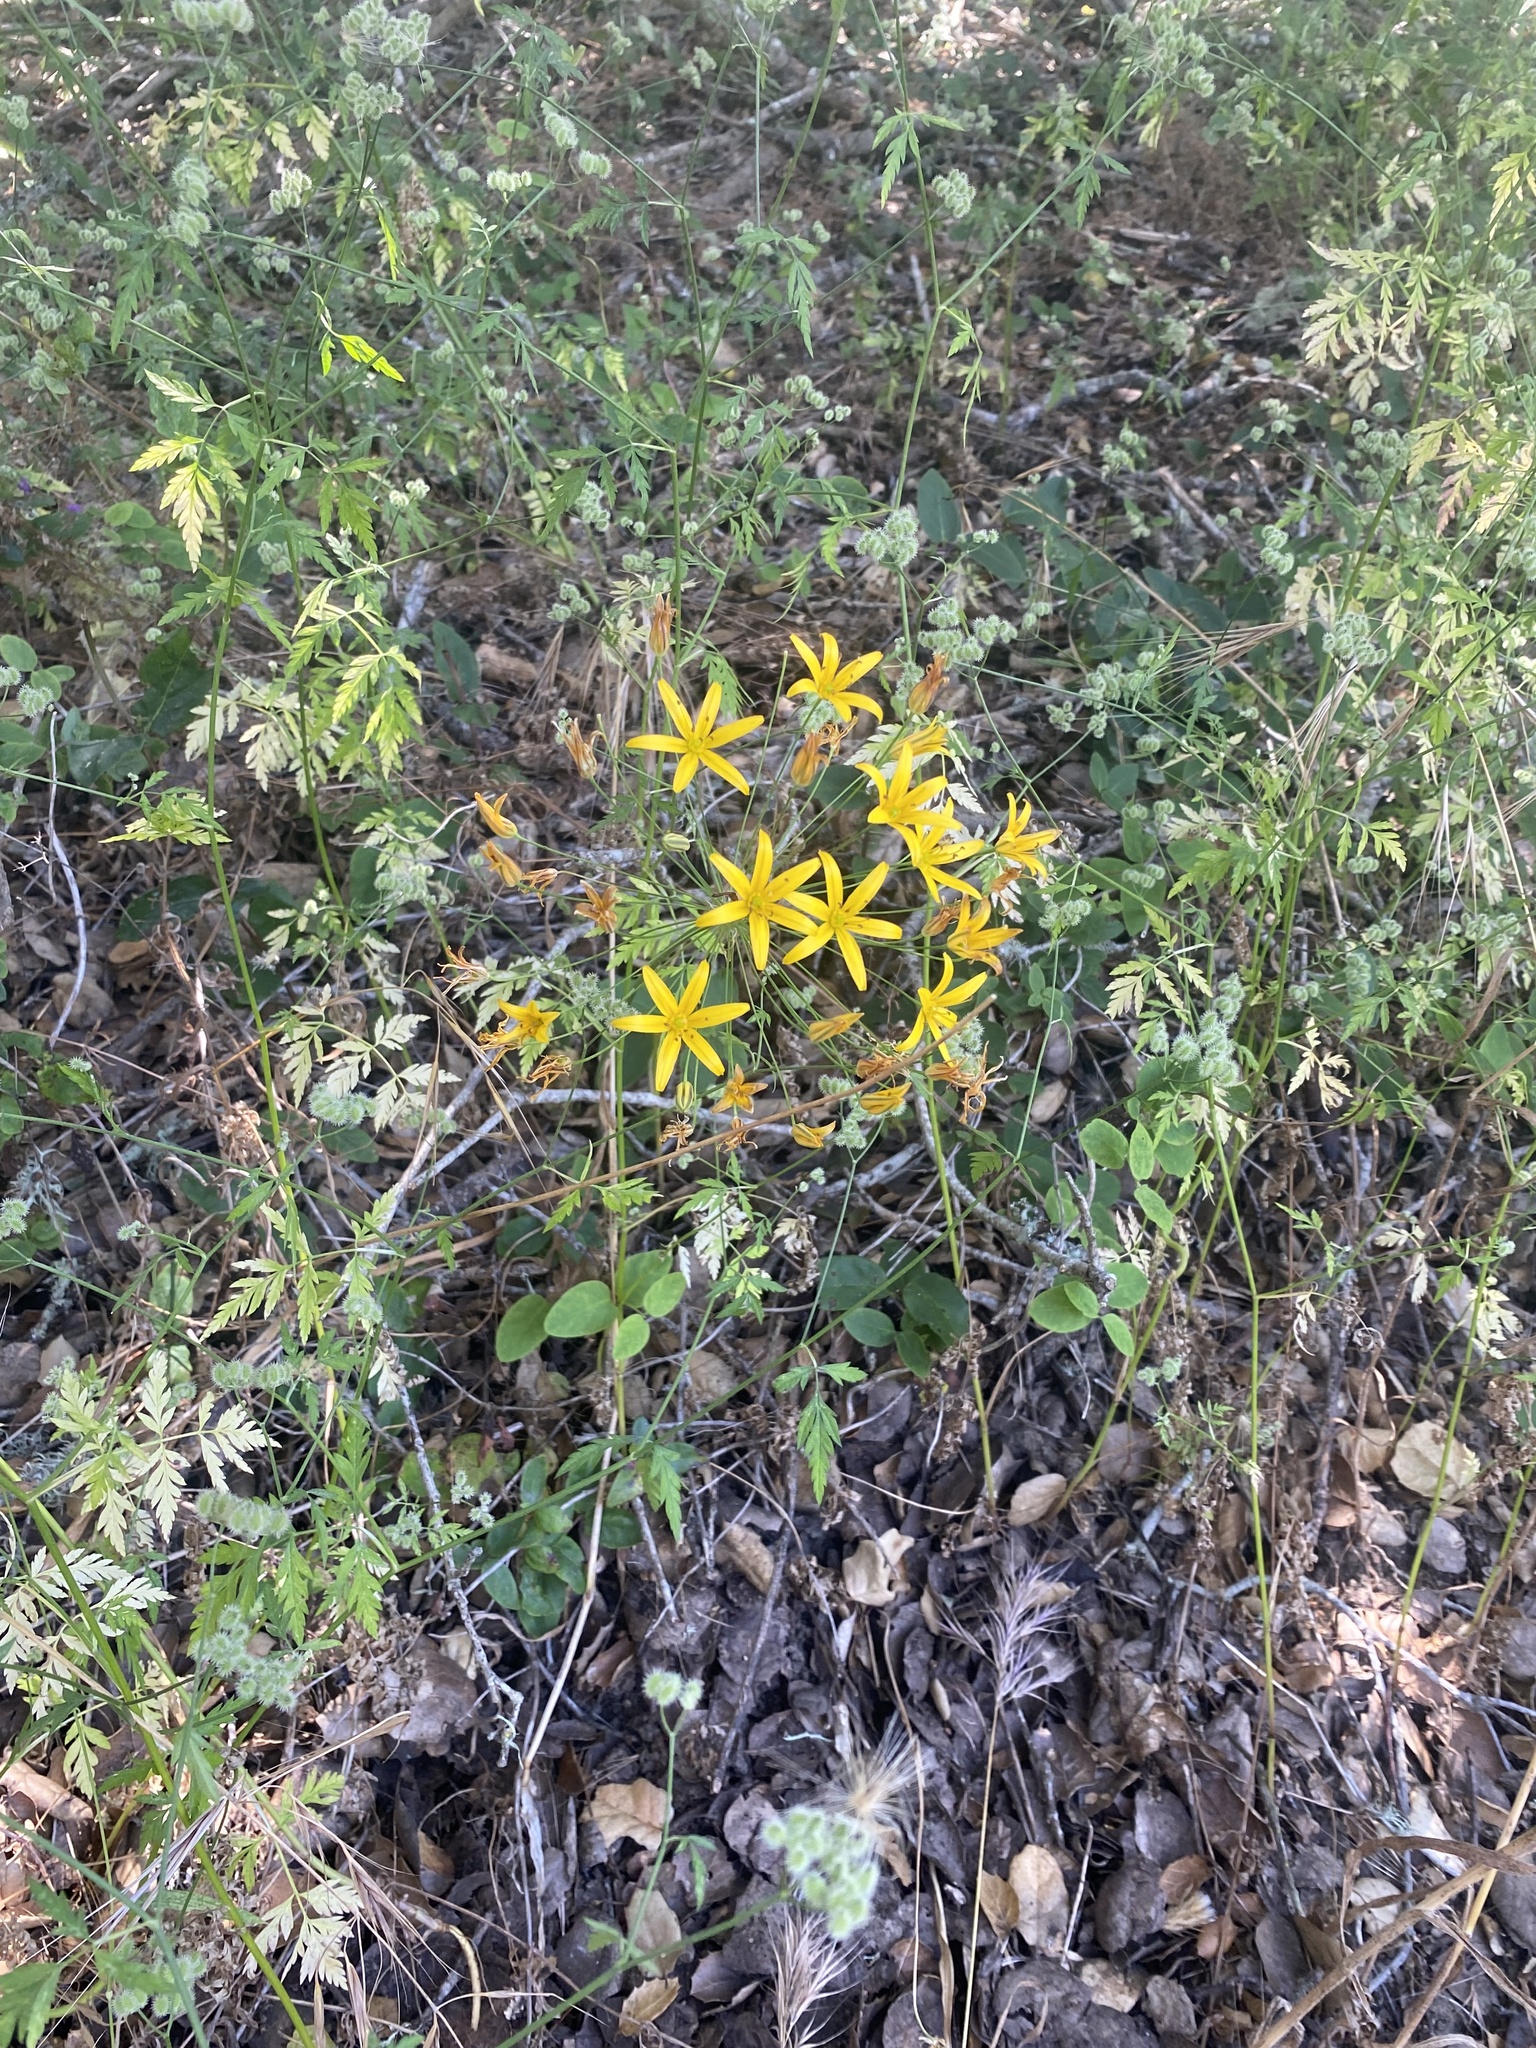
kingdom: Plantae
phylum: Tracheophyta
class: Liliopsida
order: Asparagales
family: Asparagaceae
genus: Bloomeria
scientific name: Bloomeria crocea
